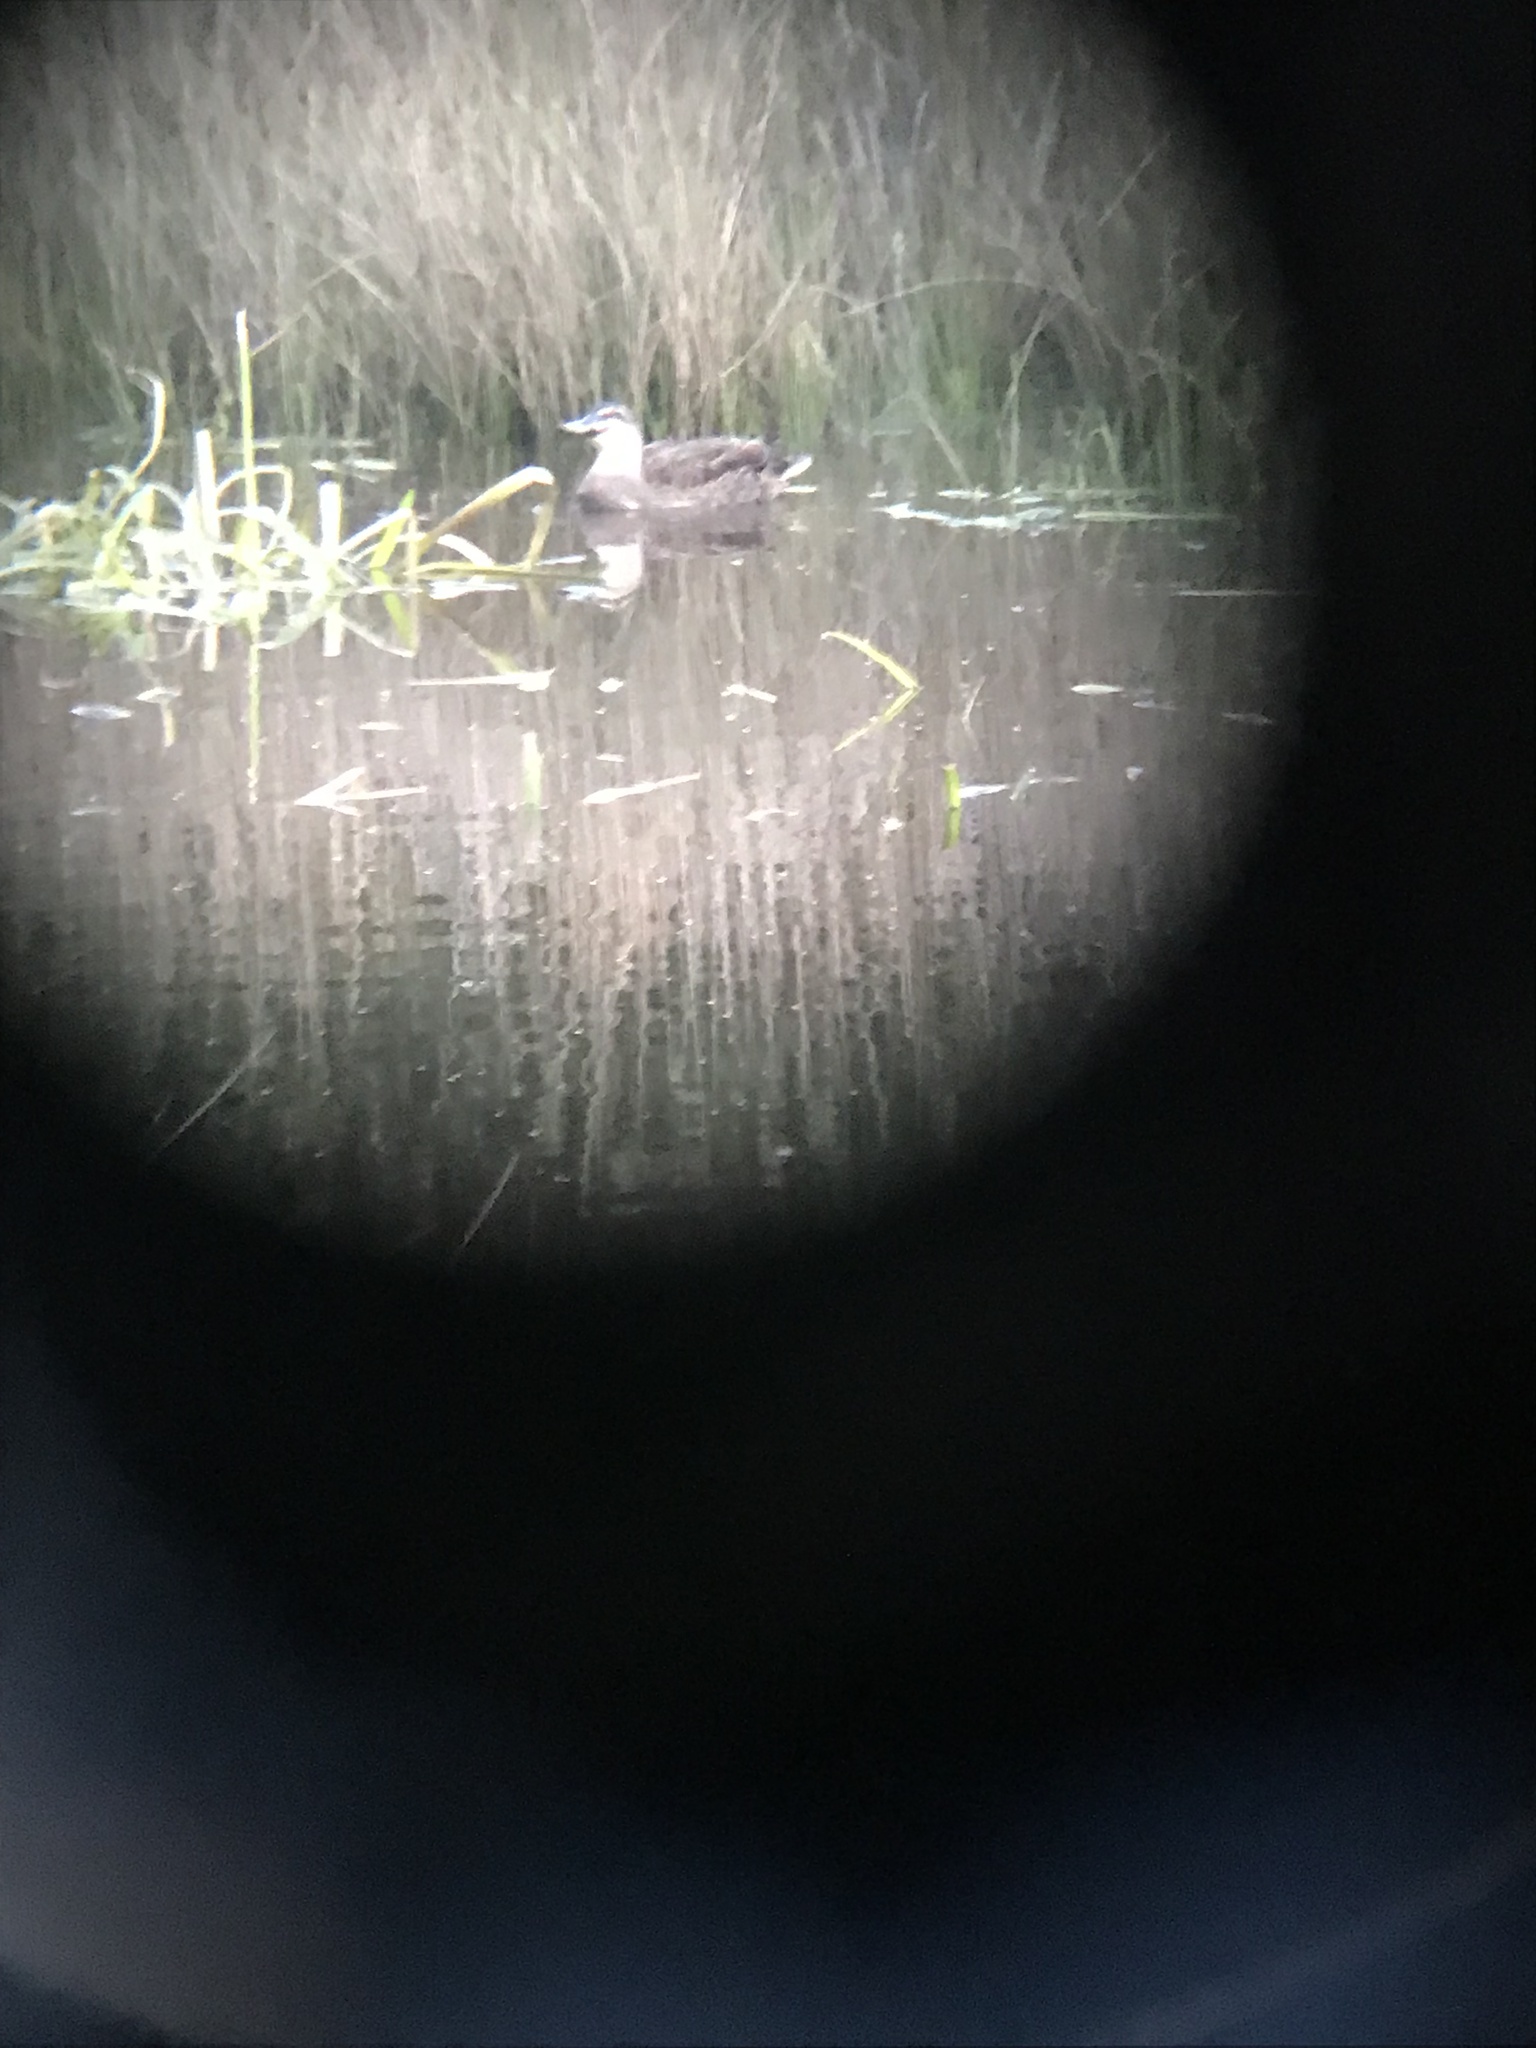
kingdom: Animalia
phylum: Chordata
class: Aves
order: Anseriformes
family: Anatidae
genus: Anas
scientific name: Anas
